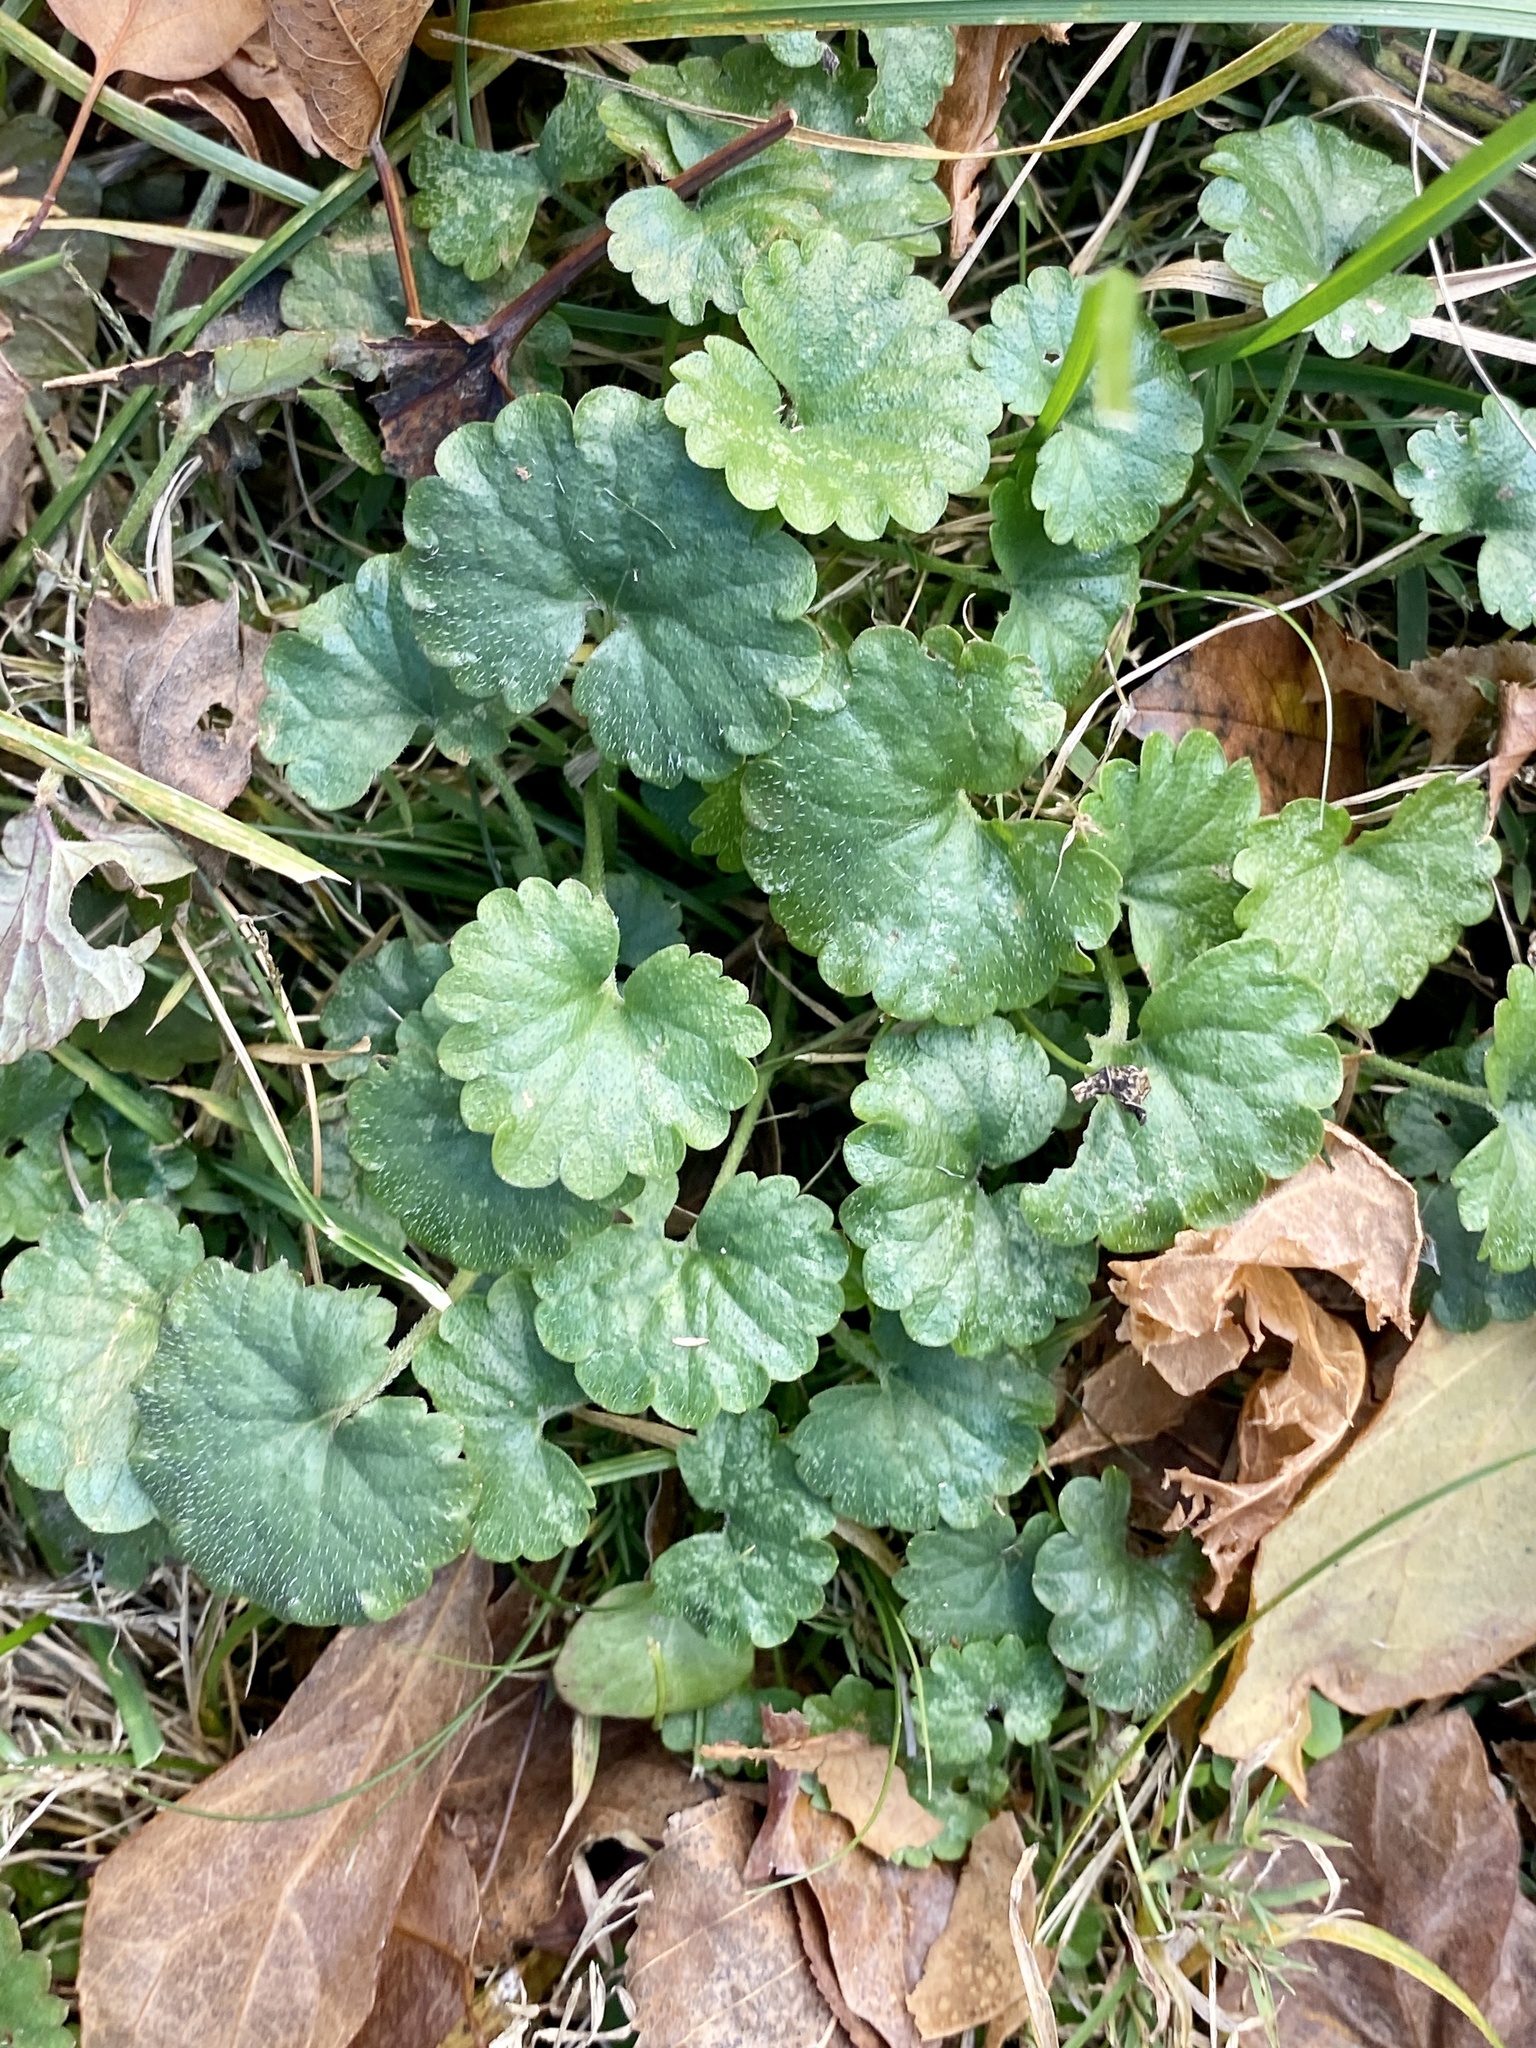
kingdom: Plantae
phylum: Tracheophyta
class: Magnoliopsida
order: Lamiales
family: Lamiaceae
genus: Glechoma
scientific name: Glechoma hederacea
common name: Ground ivy
